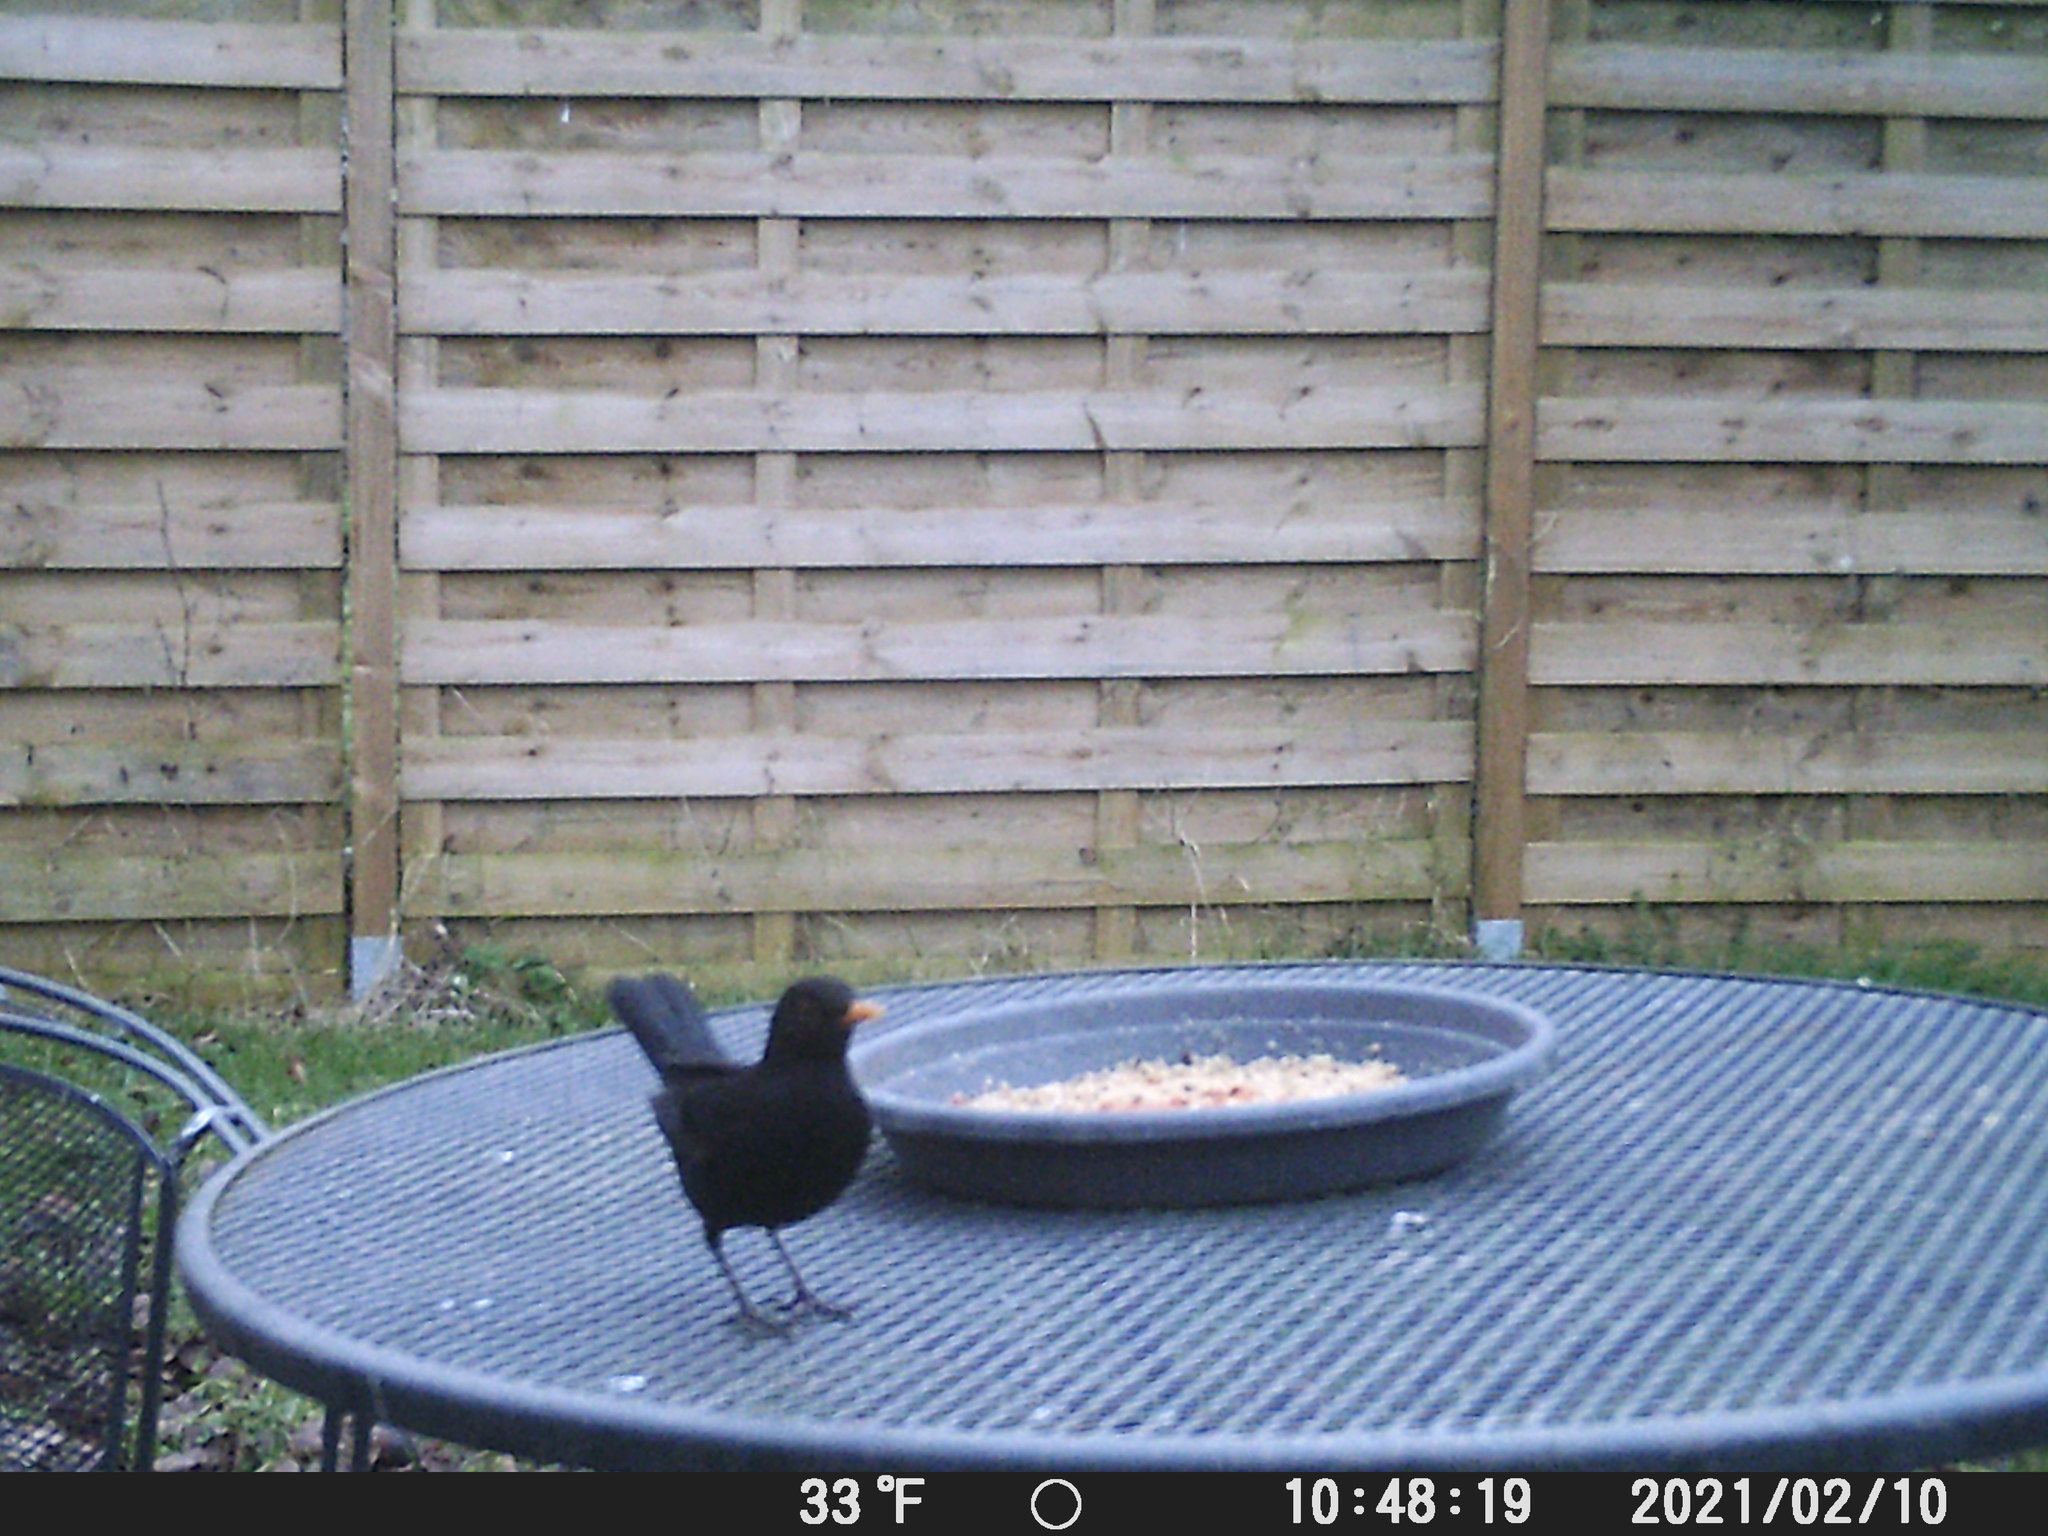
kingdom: Animalia
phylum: Chordata
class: Aves
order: Passeriformes
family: Turdidae
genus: Turdus
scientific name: Turdus merula
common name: Common blackbird
